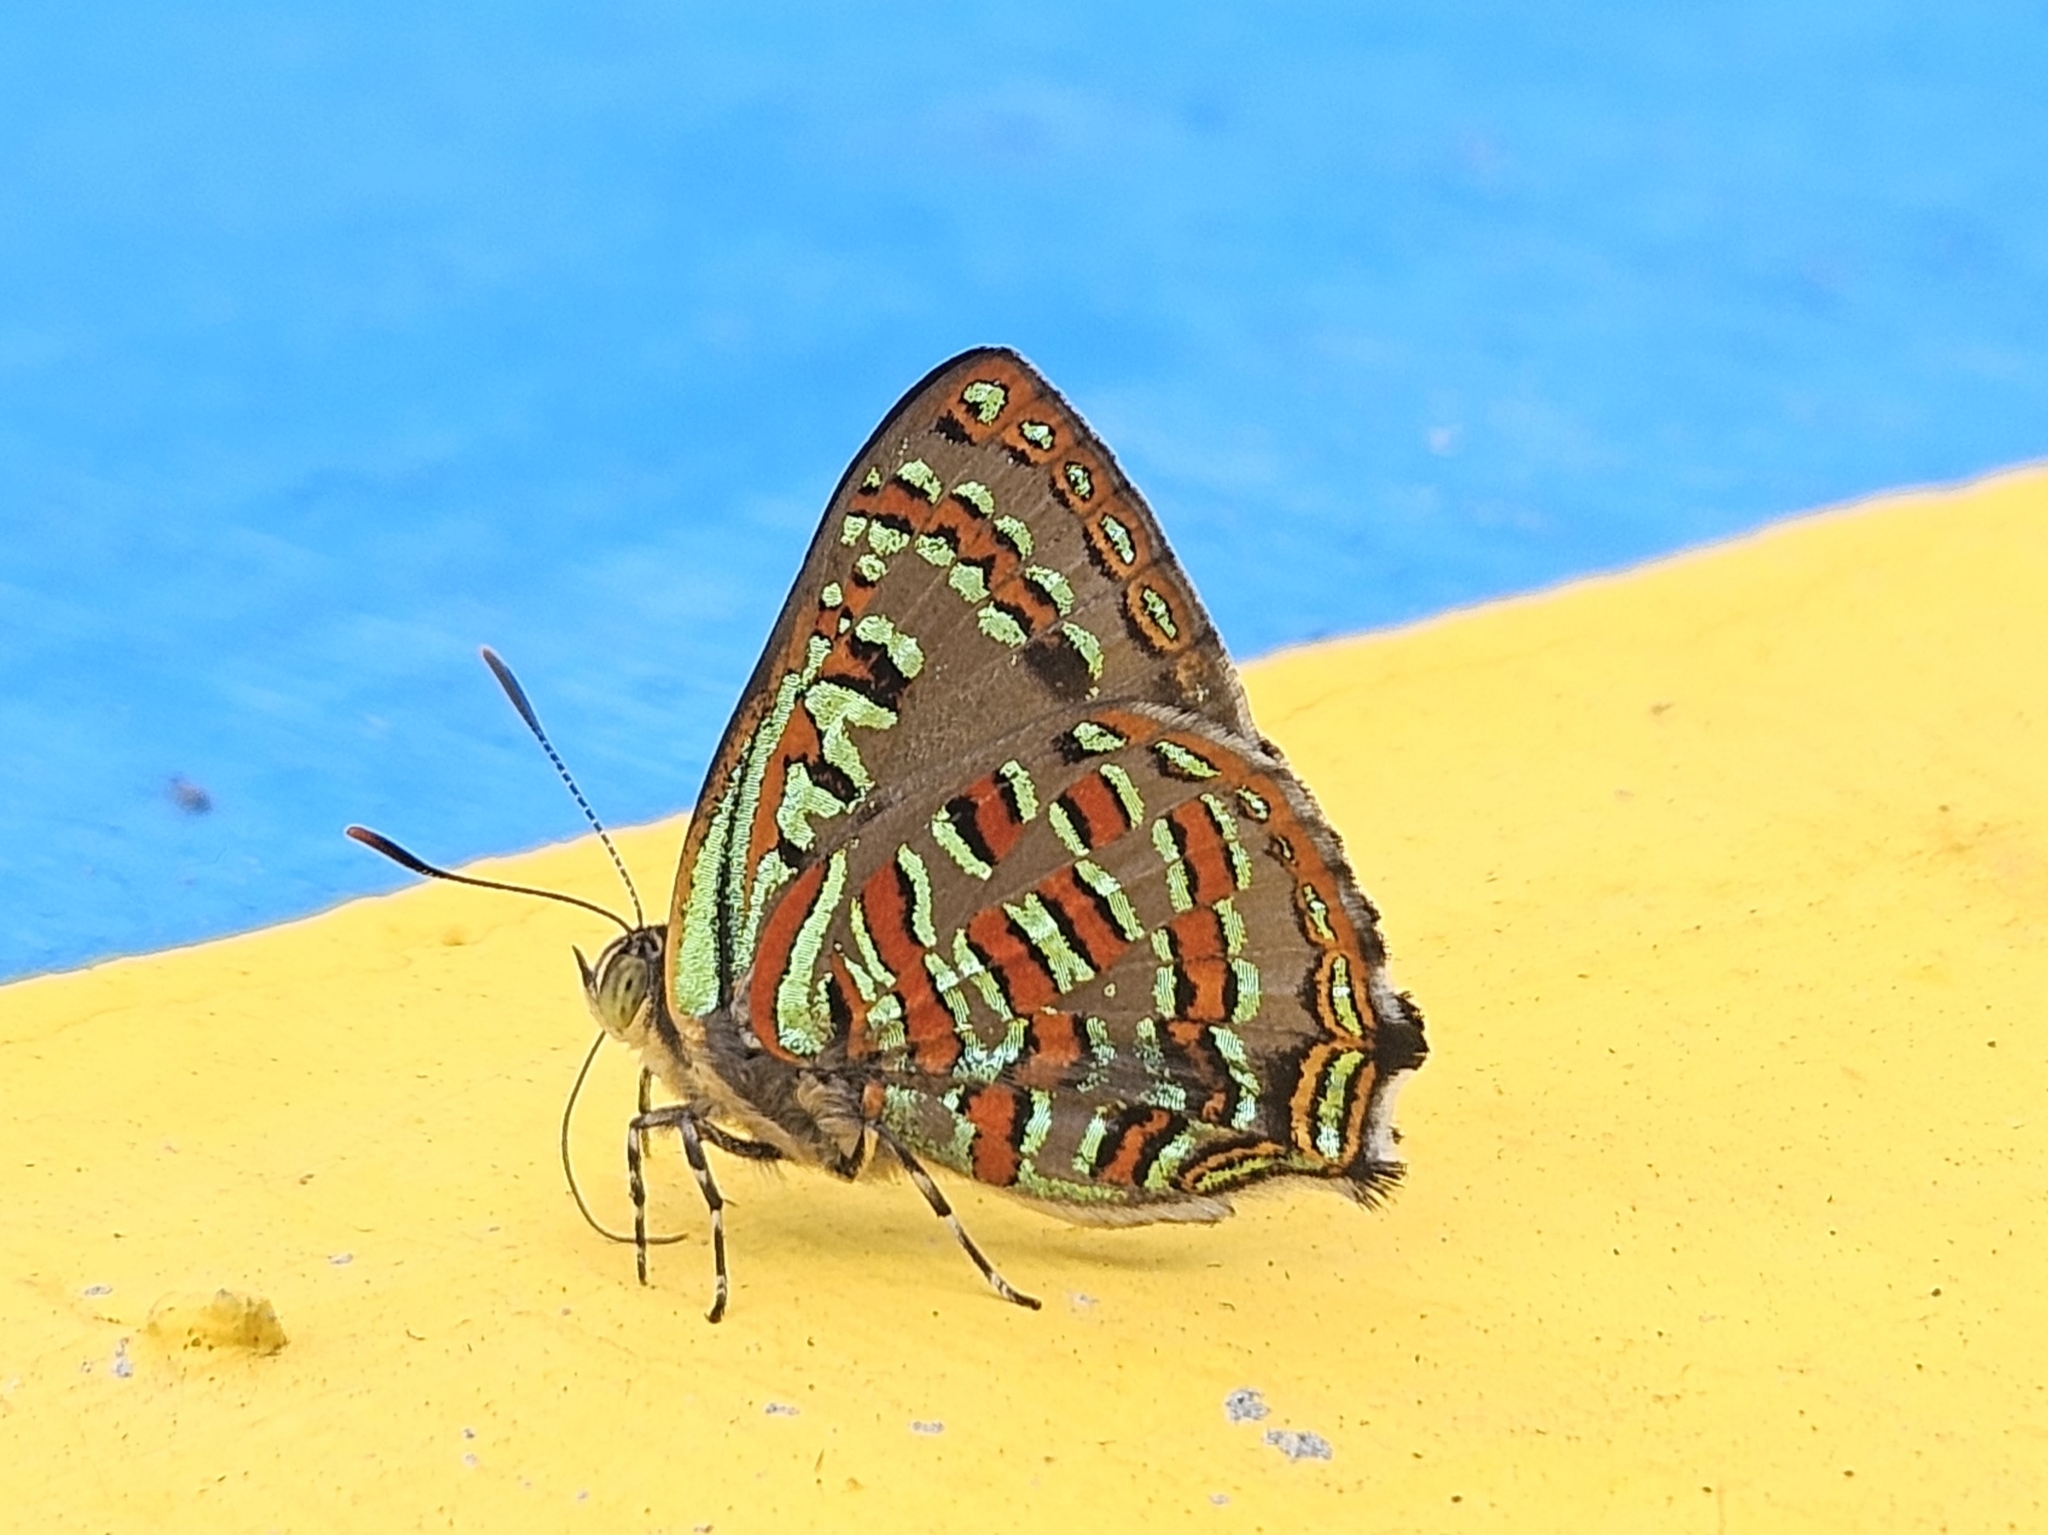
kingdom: Animalia
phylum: Arthropoda
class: Insecta
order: Lepidoptera
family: Lycaenidae
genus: Hypochrysops
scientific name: Hypochrysops pythias
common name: Peacock jewel
